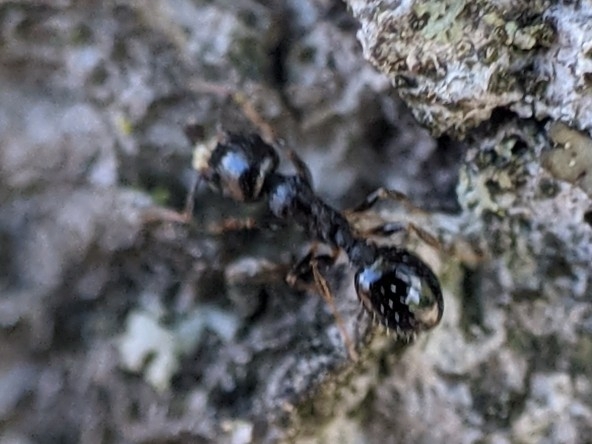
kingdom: Animalia
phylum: Arthropoda
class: Insecta
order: Hymenoptera
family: Formicidae
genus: Temnothorax
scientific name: Temnothorax longispinosus
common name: Long-spined acorn ant
